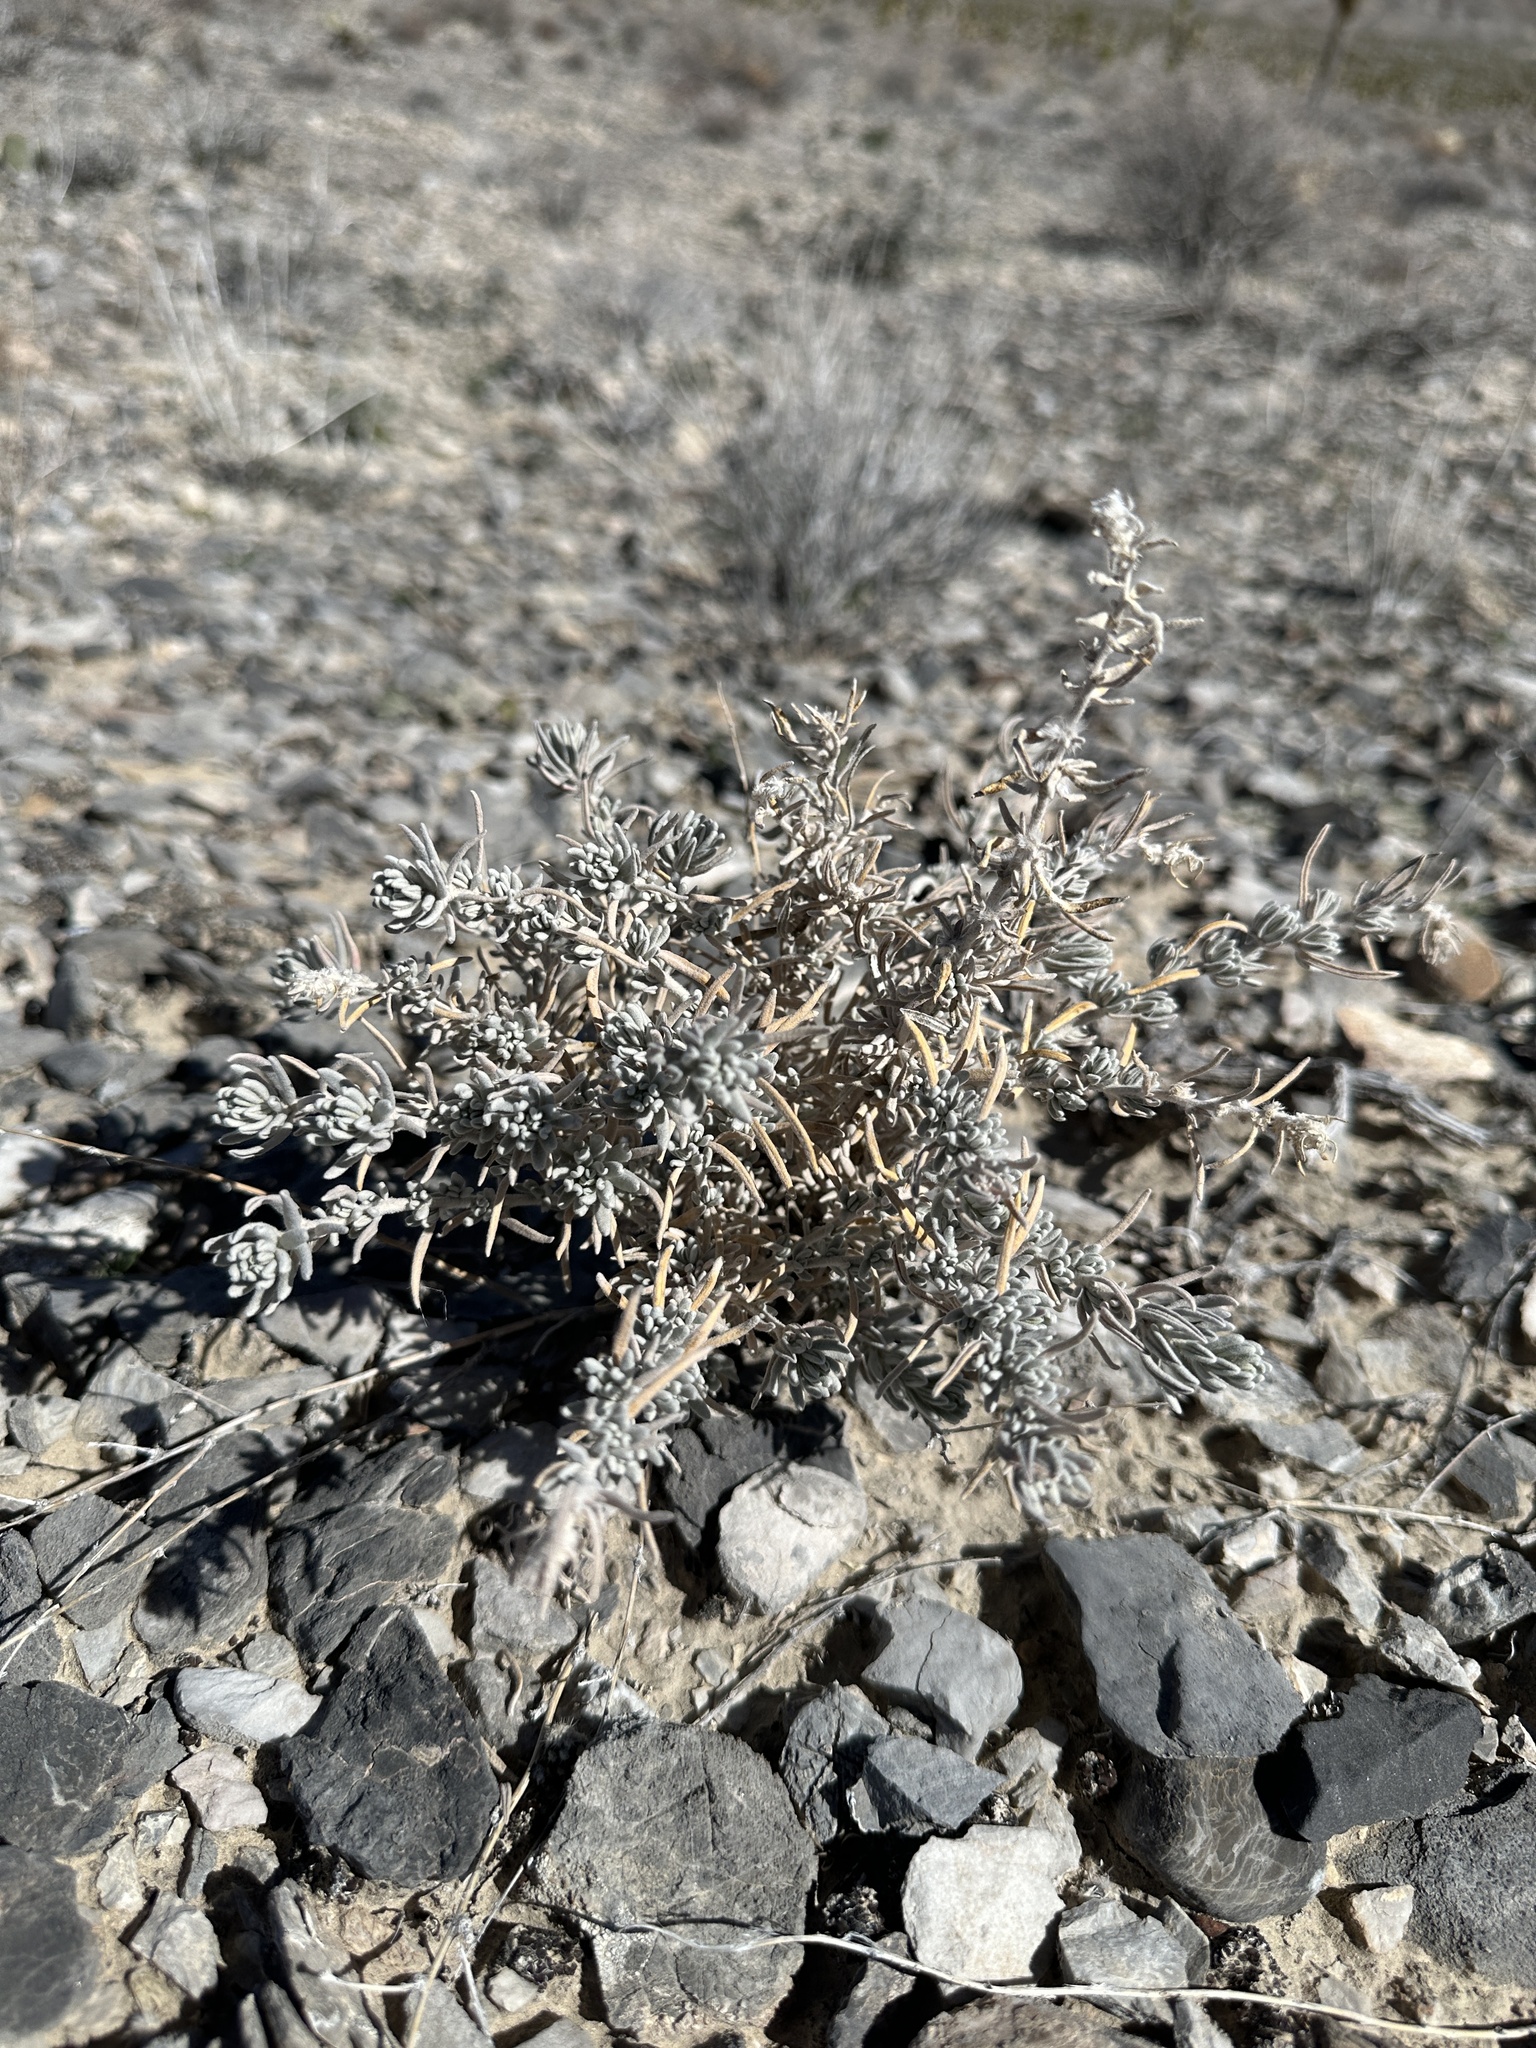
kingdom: Plantae
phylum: Tracheophyta
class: Magnoliopsida
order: Caryophyllales
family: Amaranthaceae
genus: Krascheninnikovia
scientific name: Krascheninnikovia lanata
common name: Winterfat
